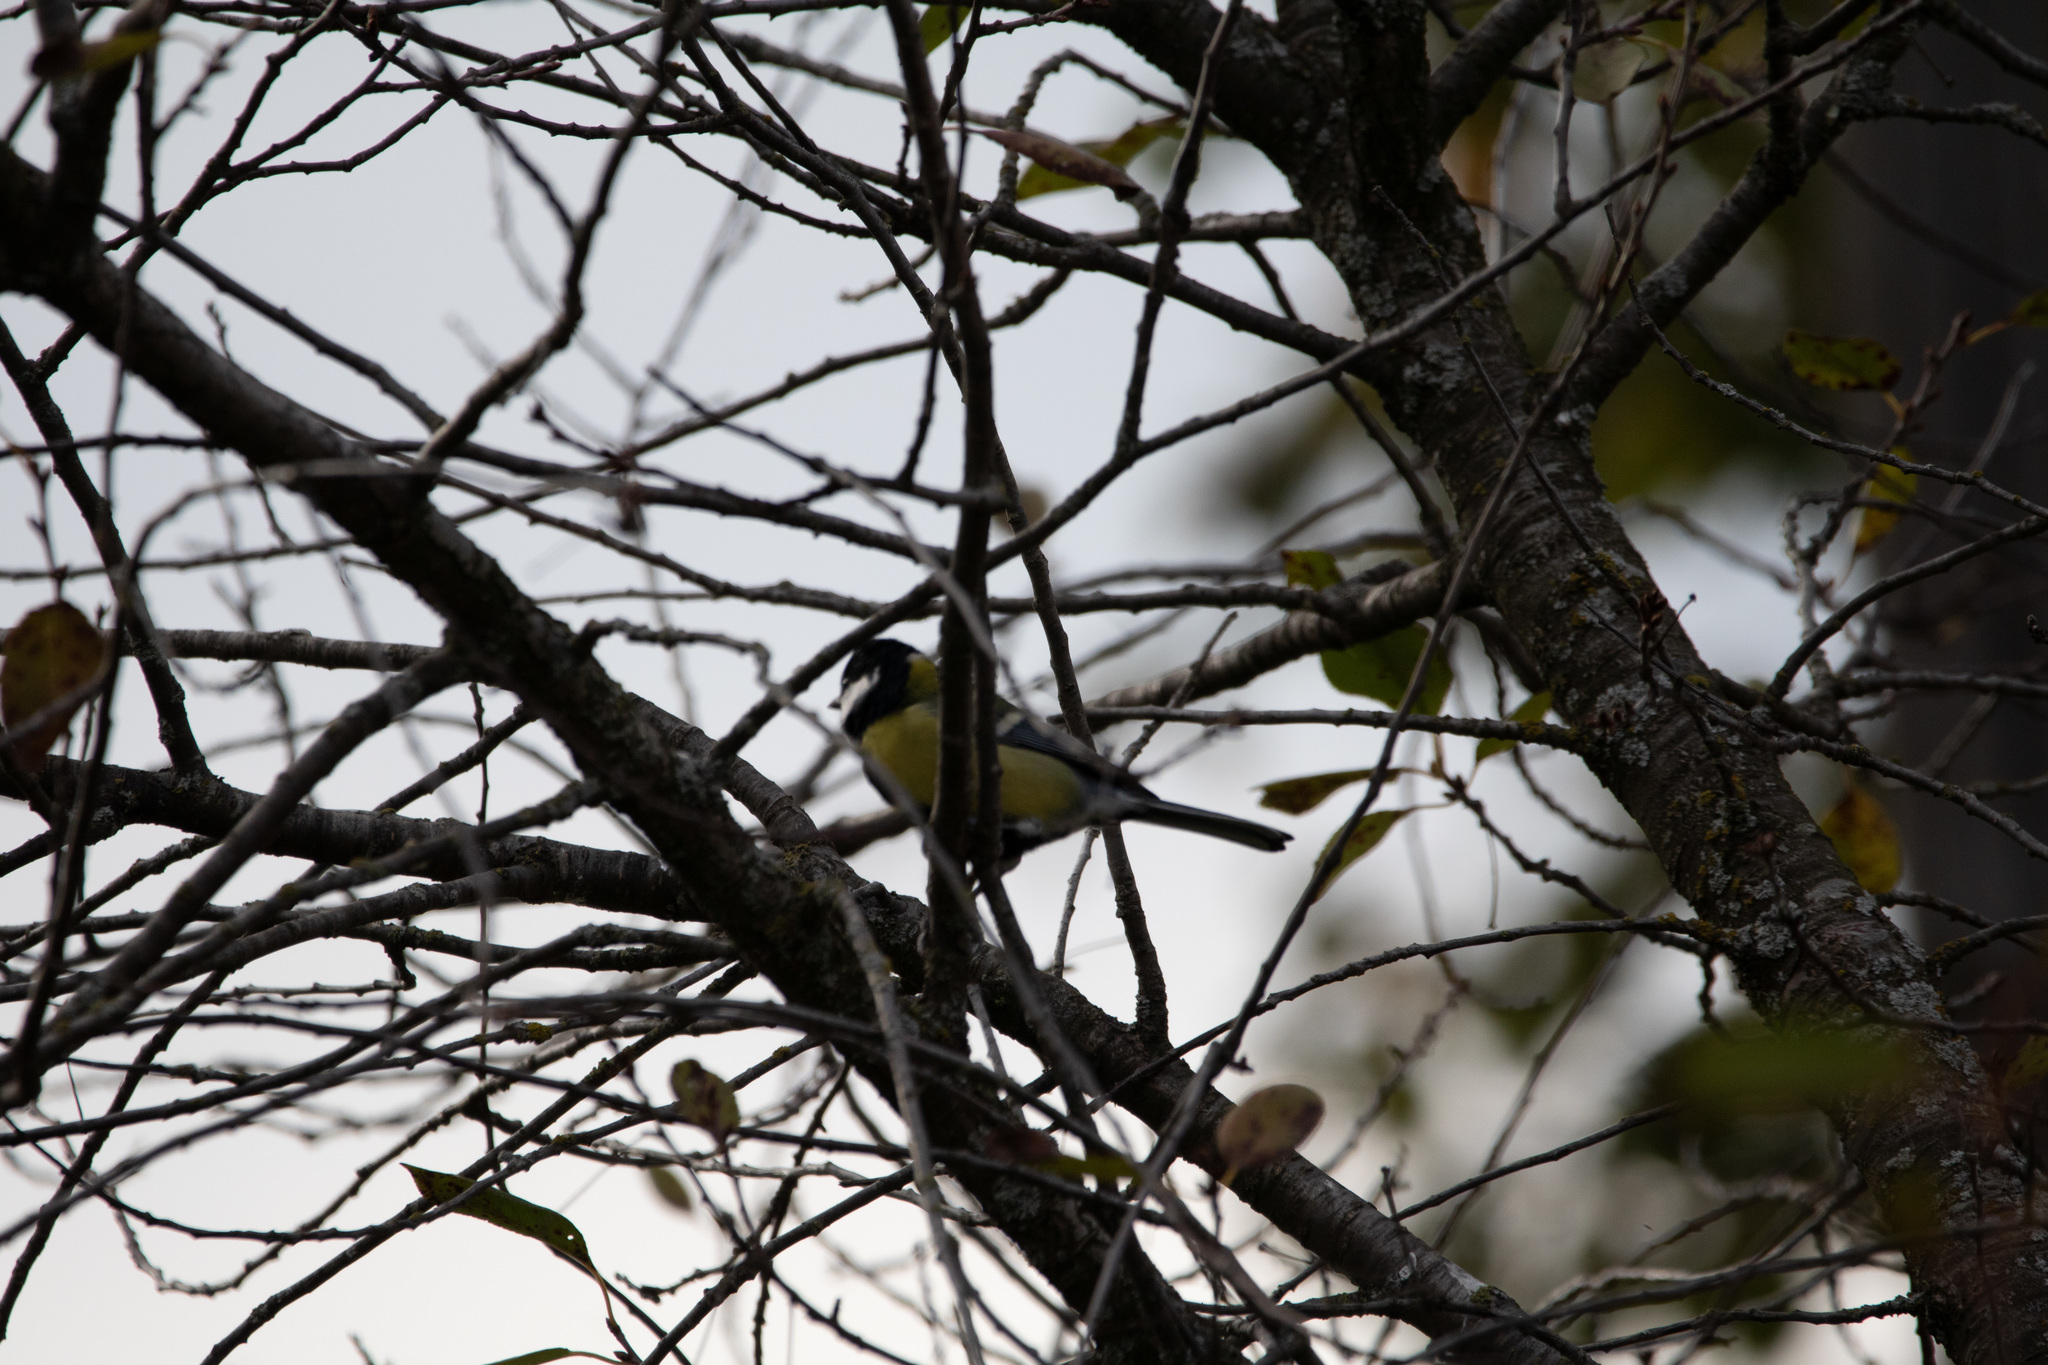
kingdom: Animalia
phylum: Chordata
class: Aves
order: Passeriformes
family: Paridae
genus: Parus
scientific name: Parus major
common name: Great tit
